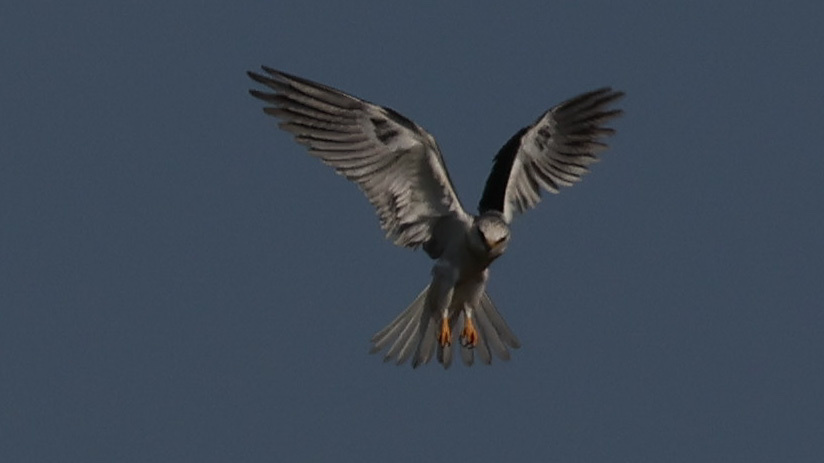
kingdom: Animalia
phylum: Chordata
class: Aves
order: Accipitriformes
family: Accipitridae
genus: Elanus
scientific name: Elanus leucurus
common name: White-tailed kite
